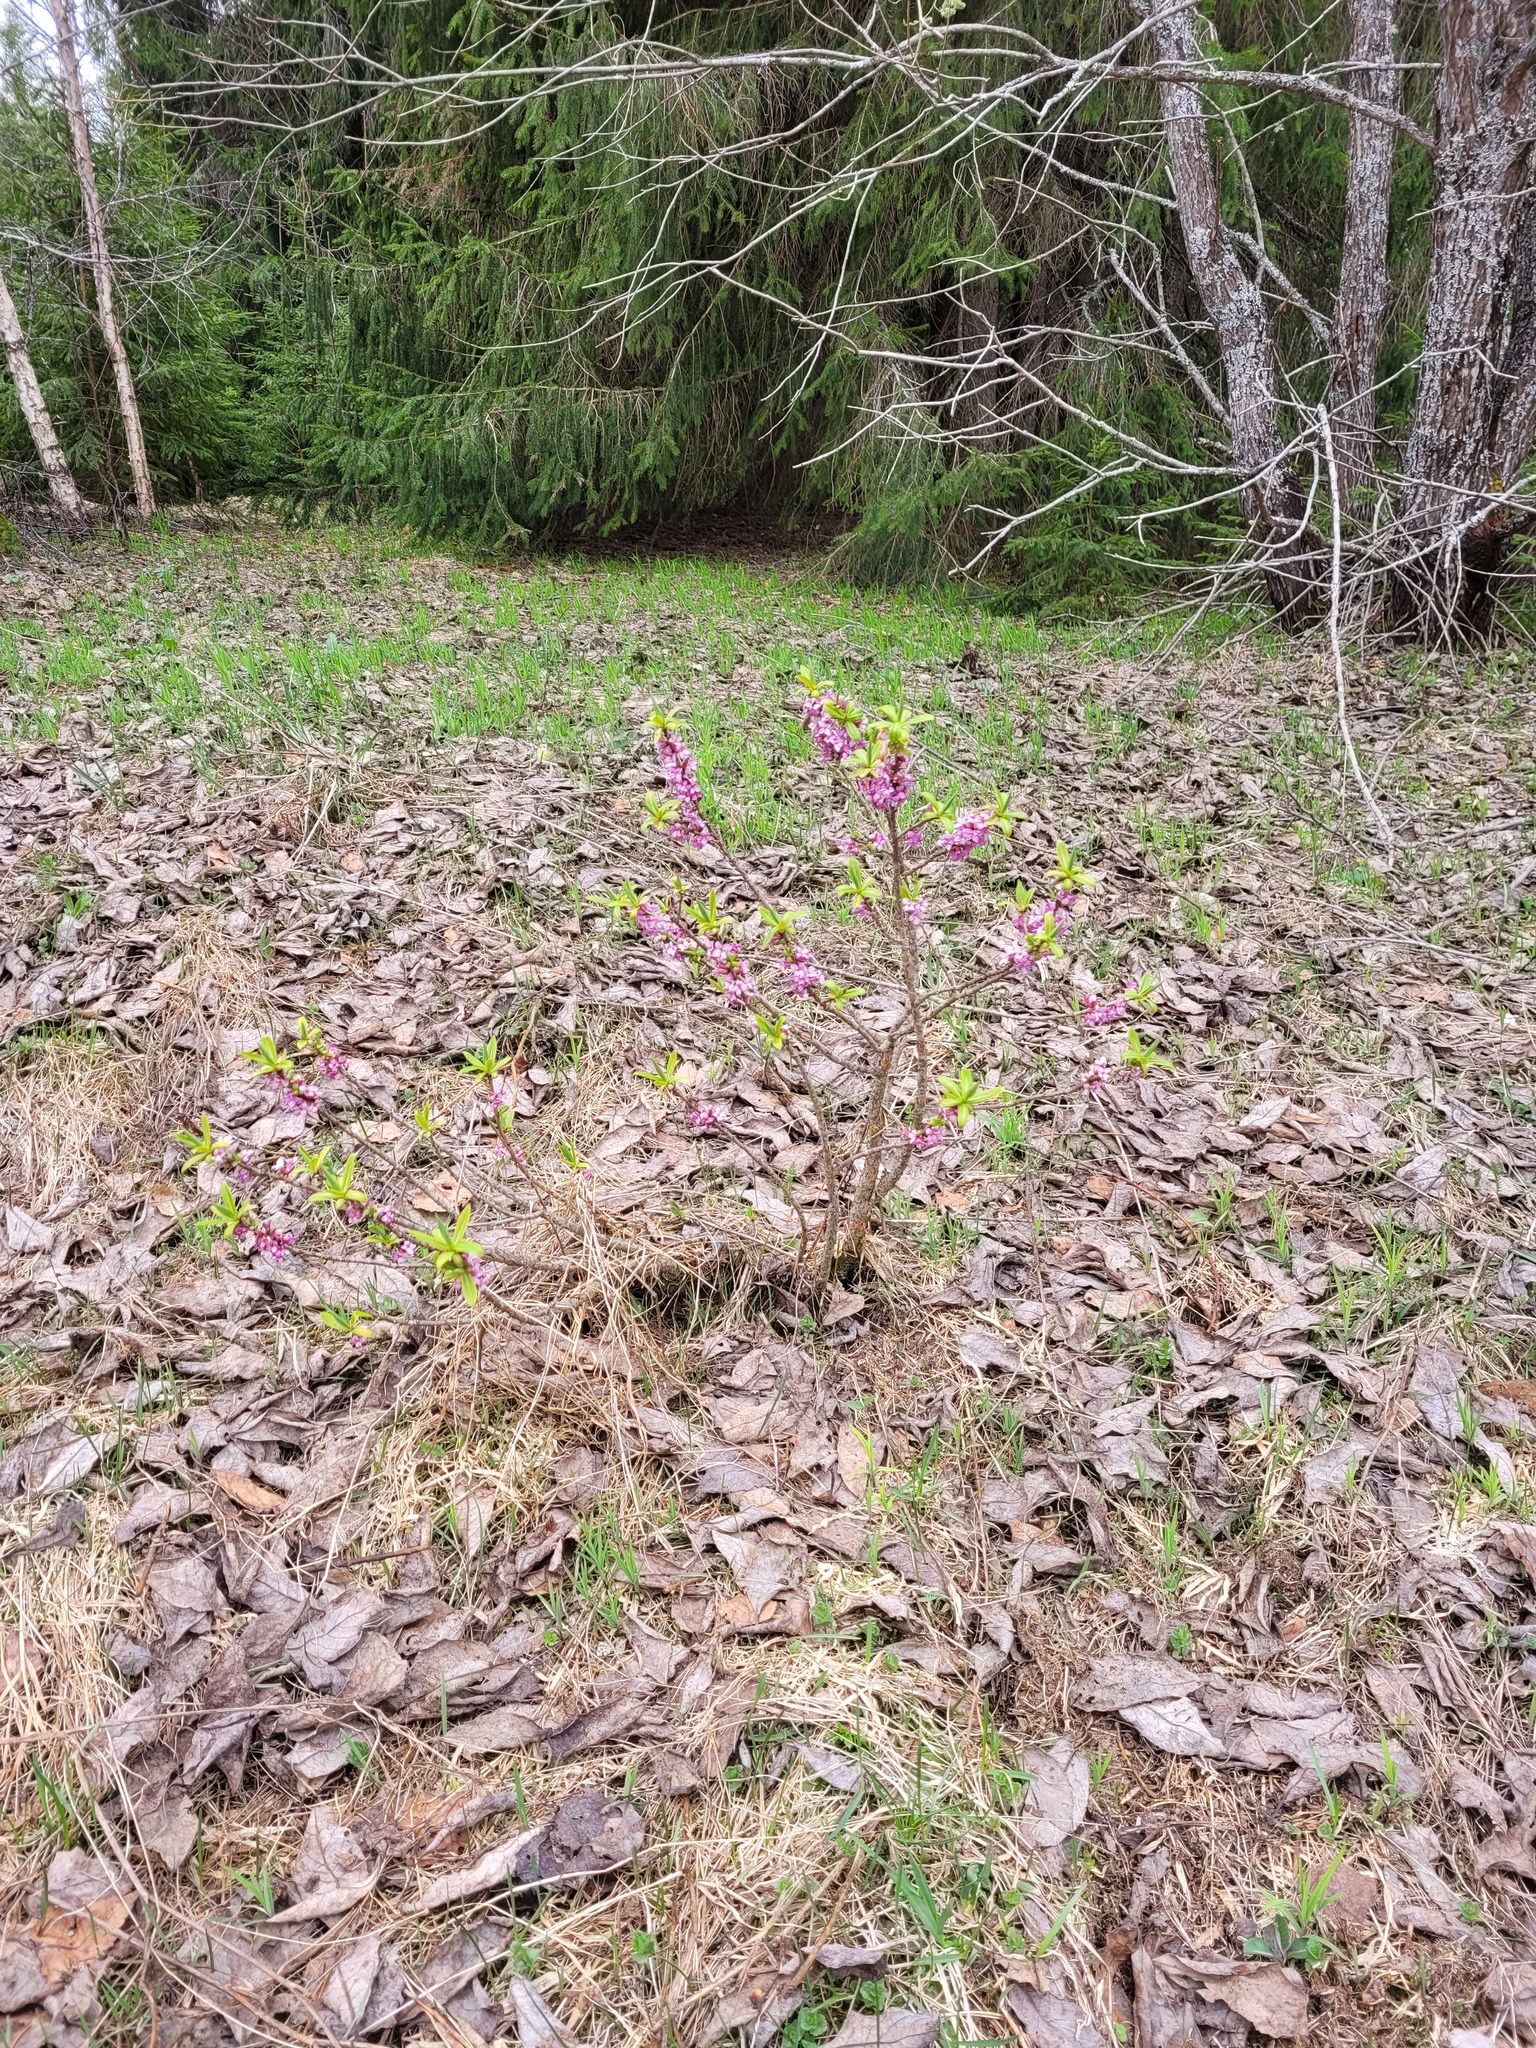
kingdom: Plantae
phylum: Tracheophyta
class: Magnoliopsida
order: Malvales
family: Thymelaeaceae
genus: Daphne
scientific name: Daphne mezereum
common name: Mezereon
